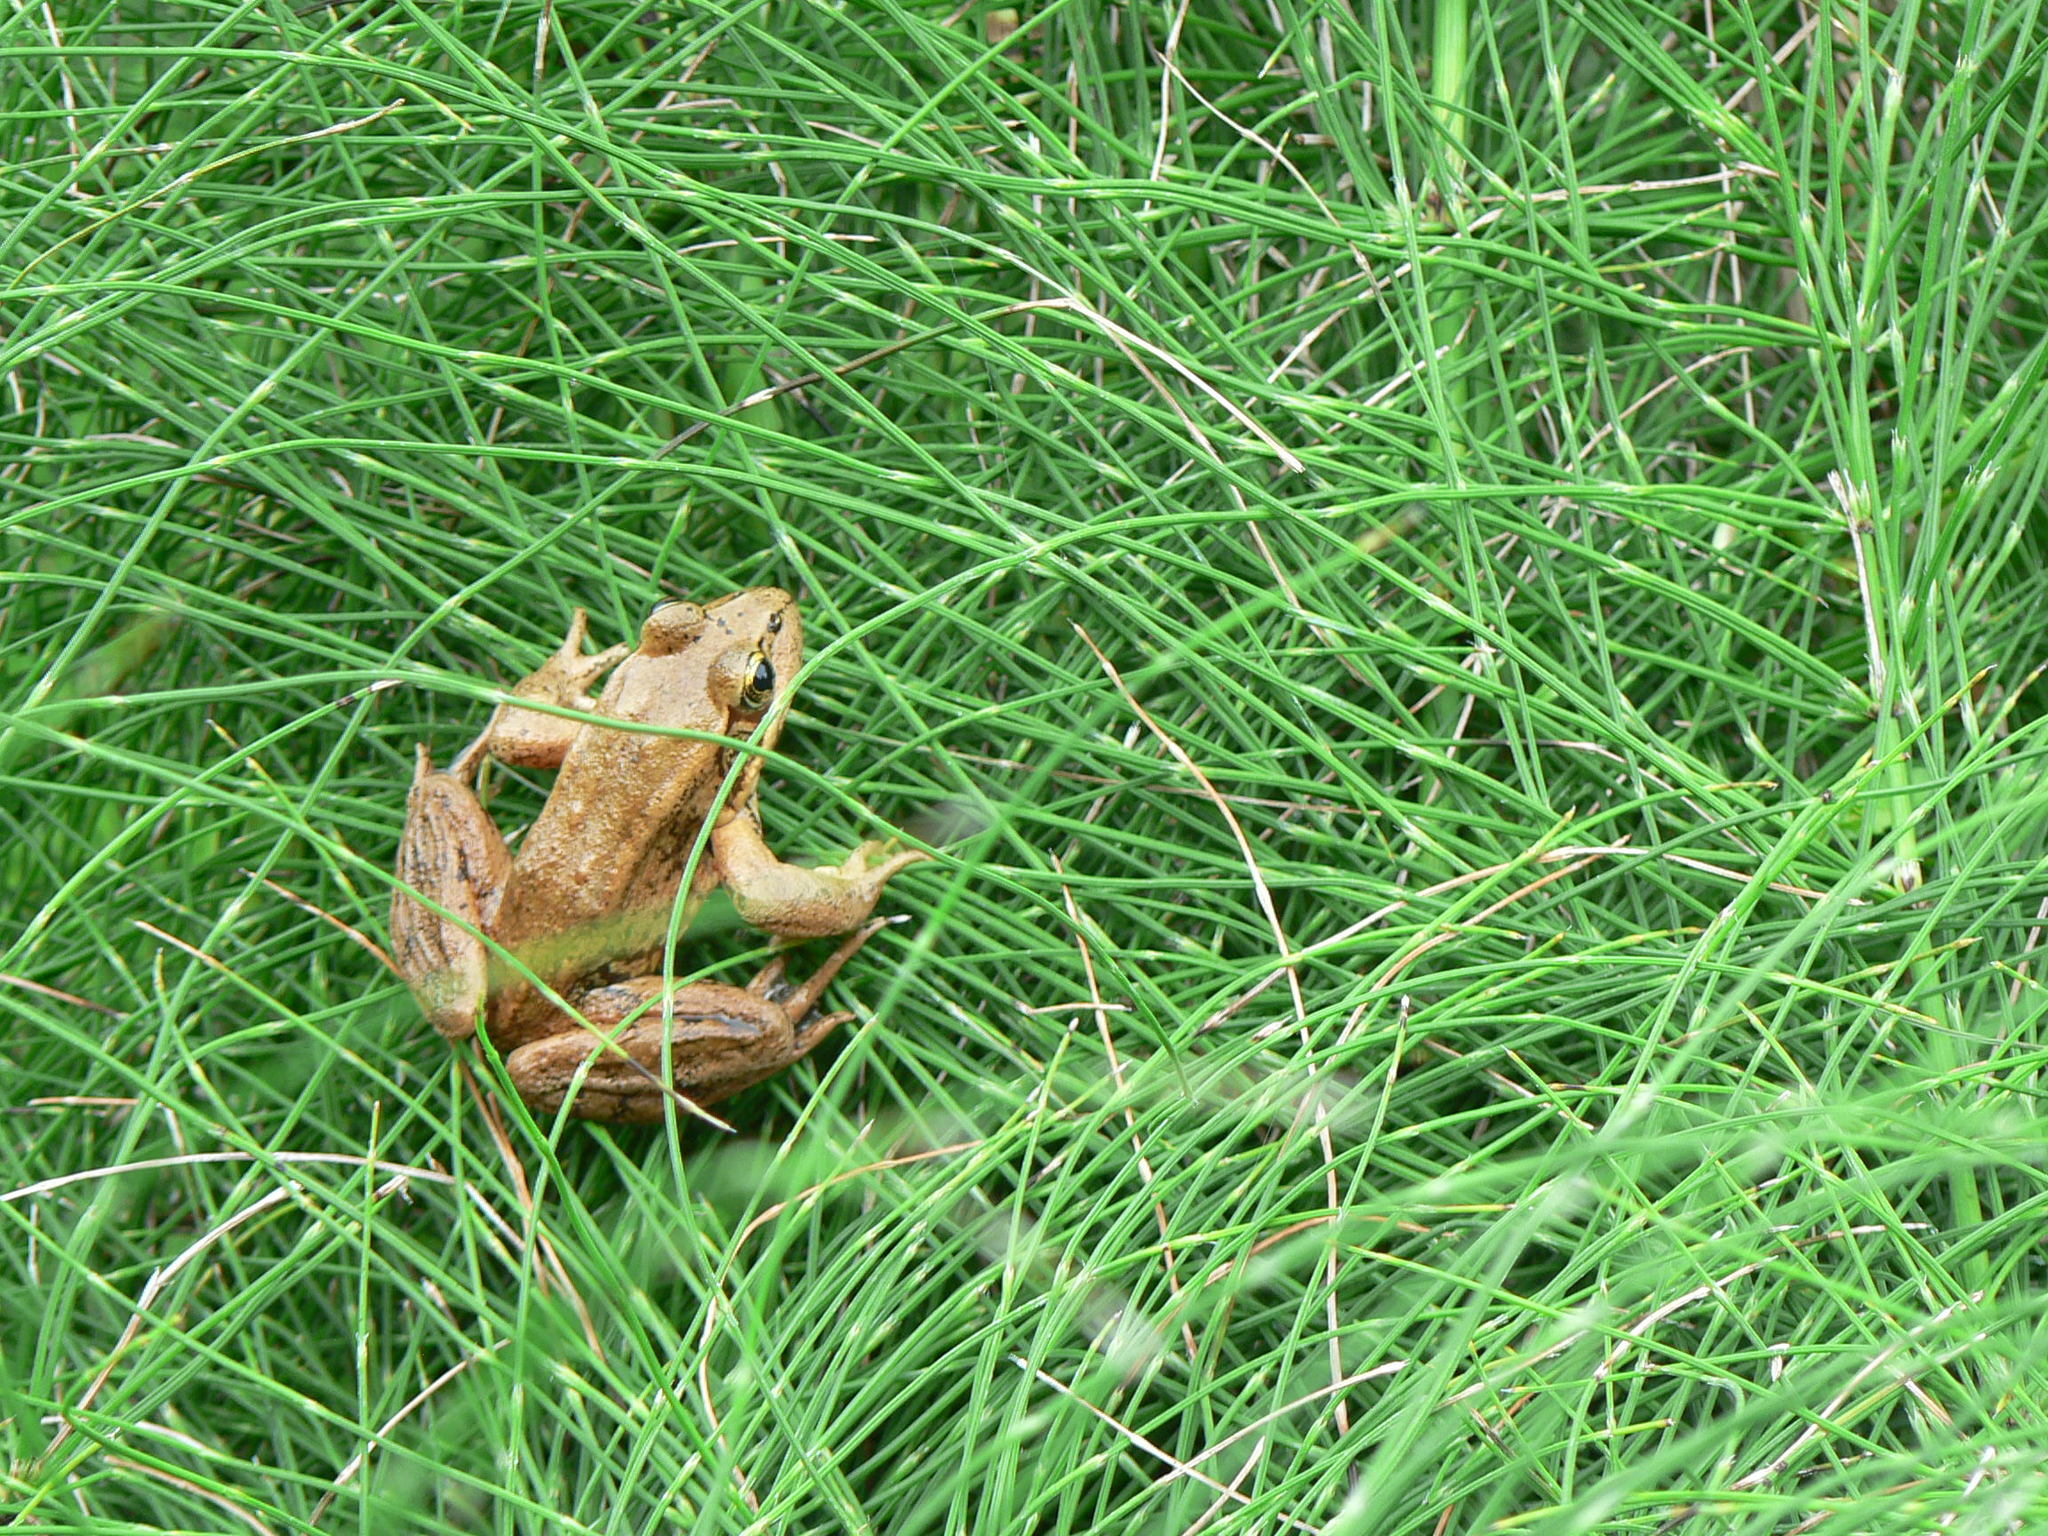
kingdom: Animalia
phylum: Chordata
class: Amphibia
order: Anura
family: Ranidae
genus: Rana
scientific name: Rana aurora
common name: Red-legged frog
